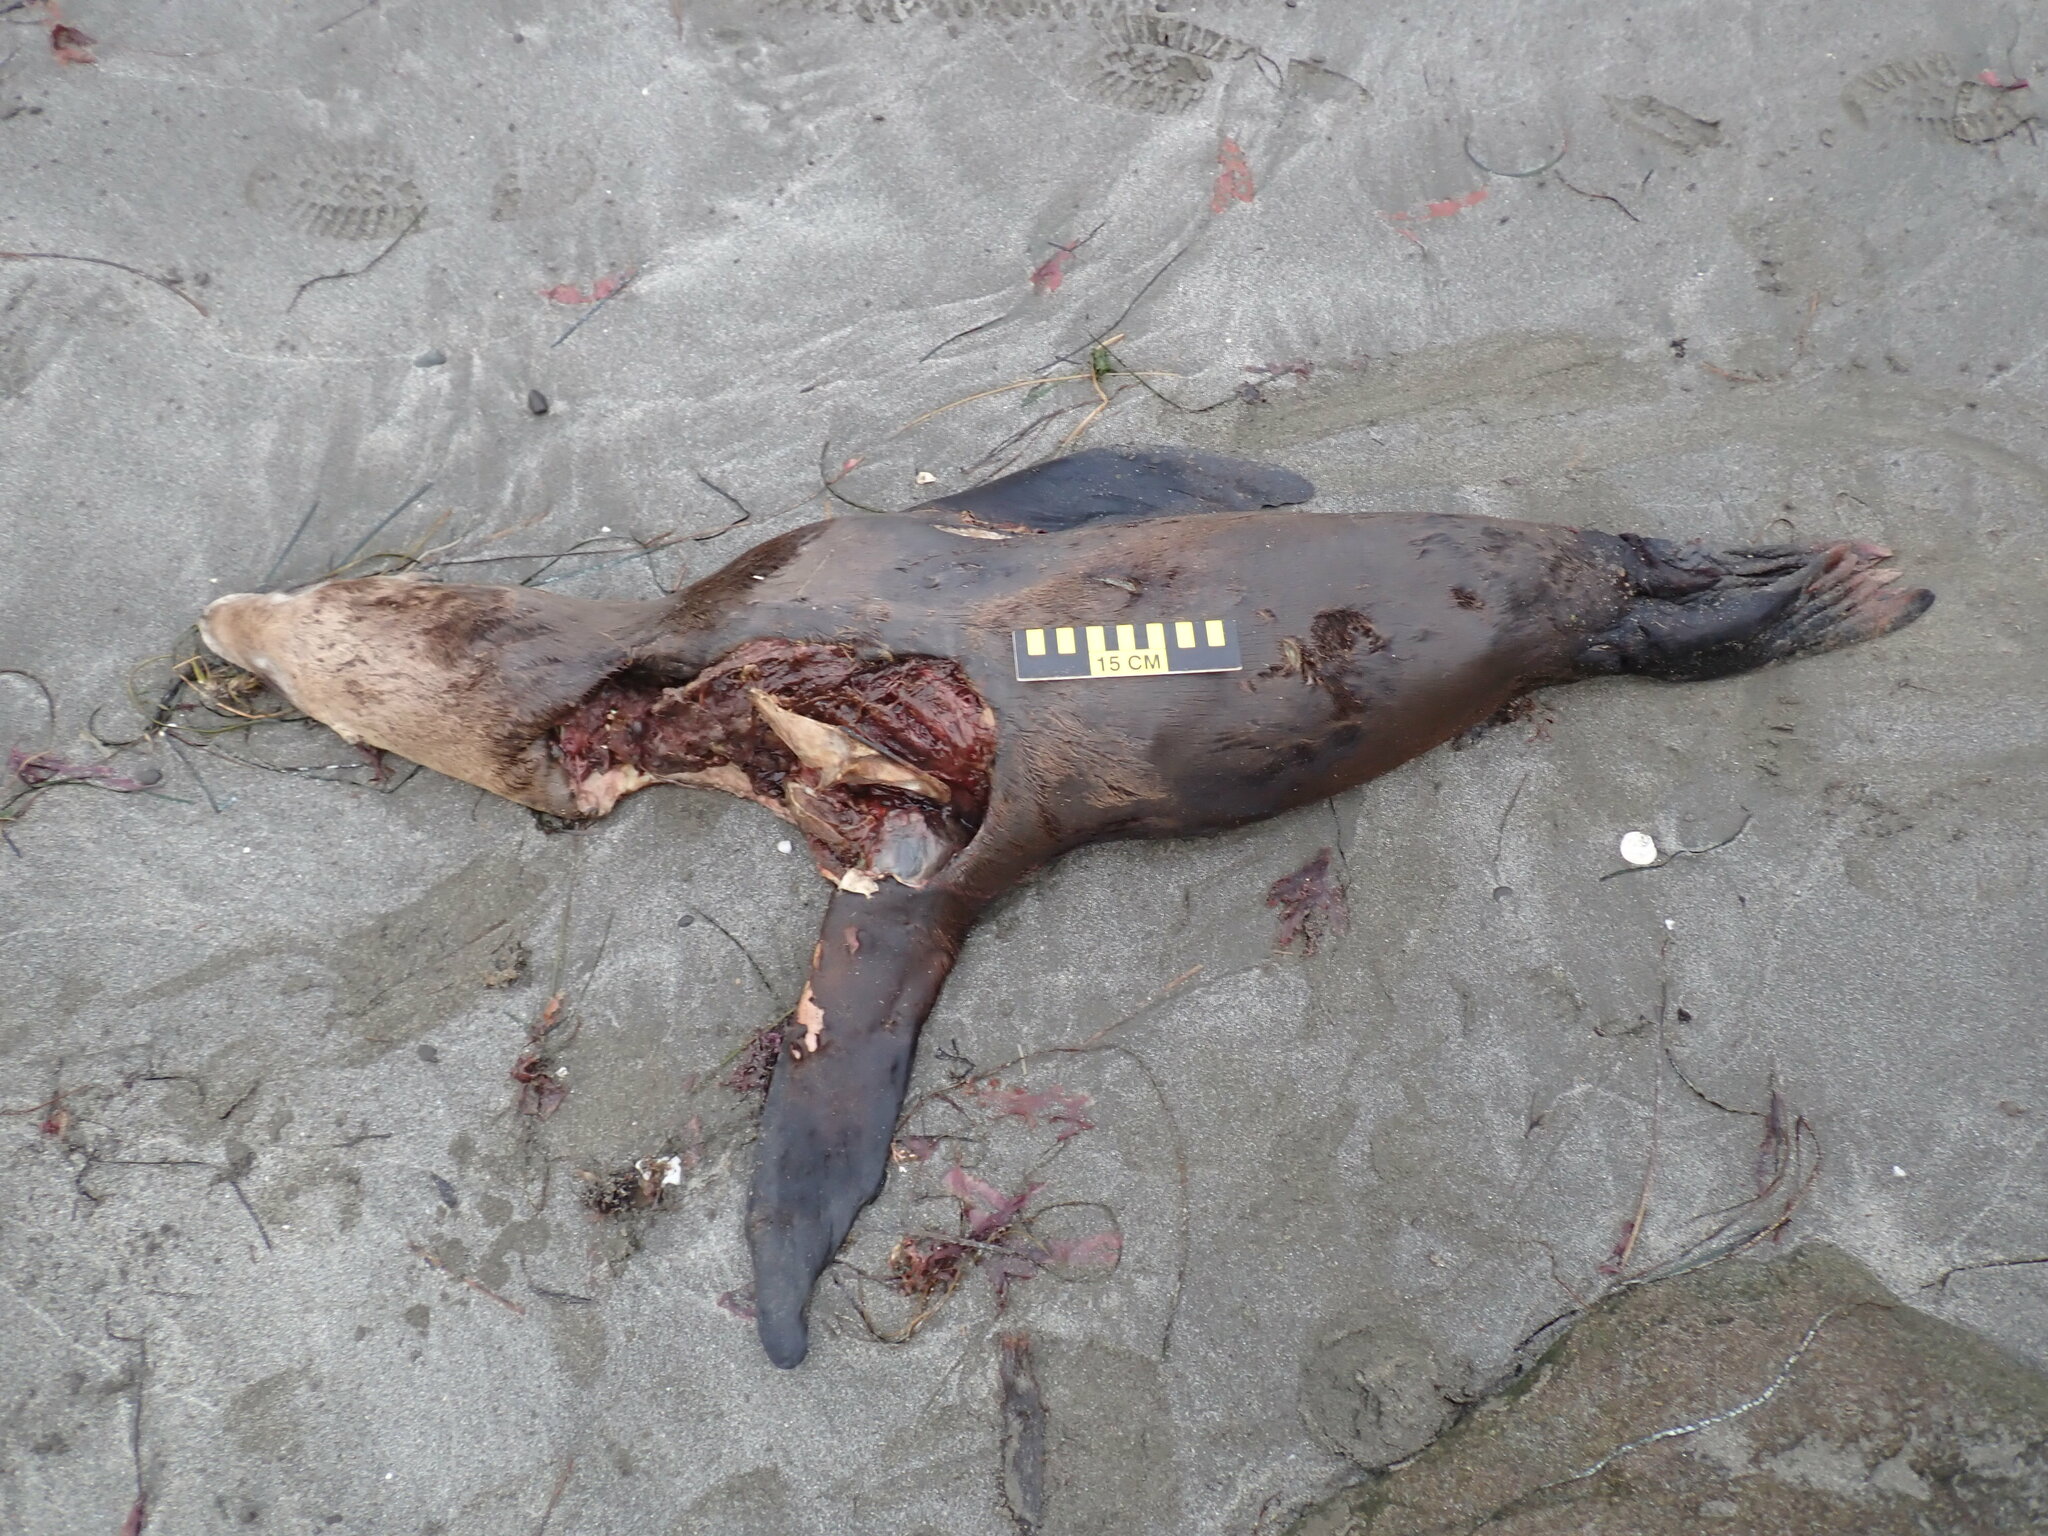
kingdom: Animalia
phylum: Chordata
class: Mammalia
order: Carnivora
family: Otariidae
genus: Zalophus
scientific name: Zalophus californianus
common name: California sea lion
